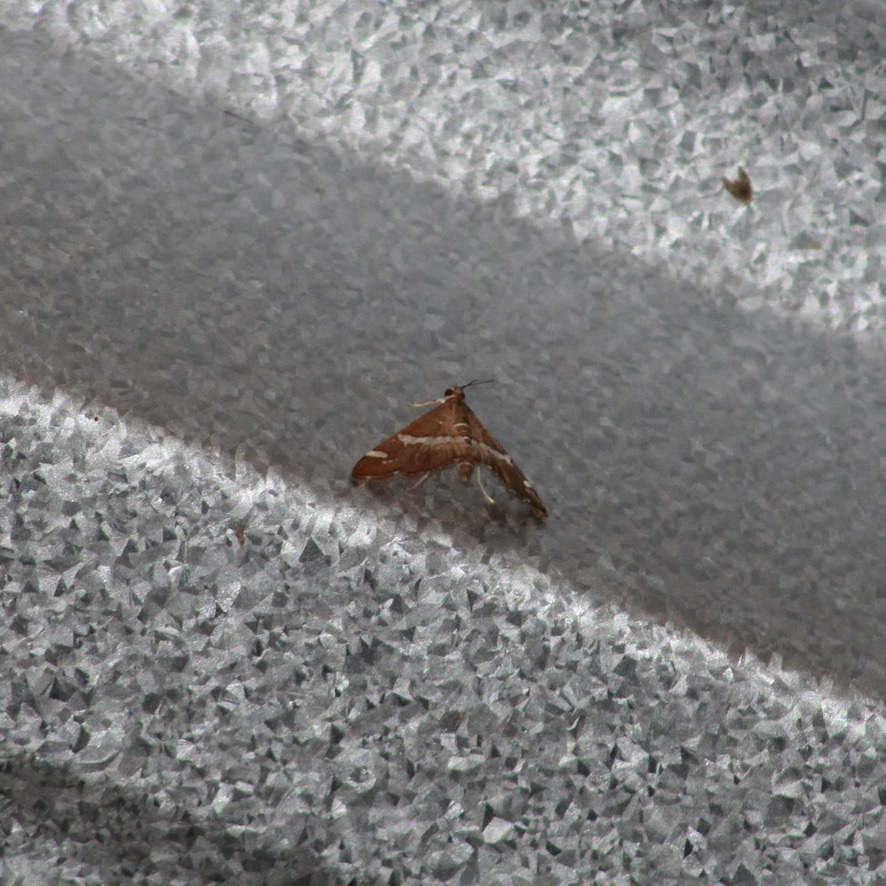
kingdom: Animalia
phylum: Arthropoda
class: Insecta
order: Lepidoptera
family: Crambidae
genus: Spoladea
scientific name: Spoladea recurvalis
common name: Beet webworm moth
